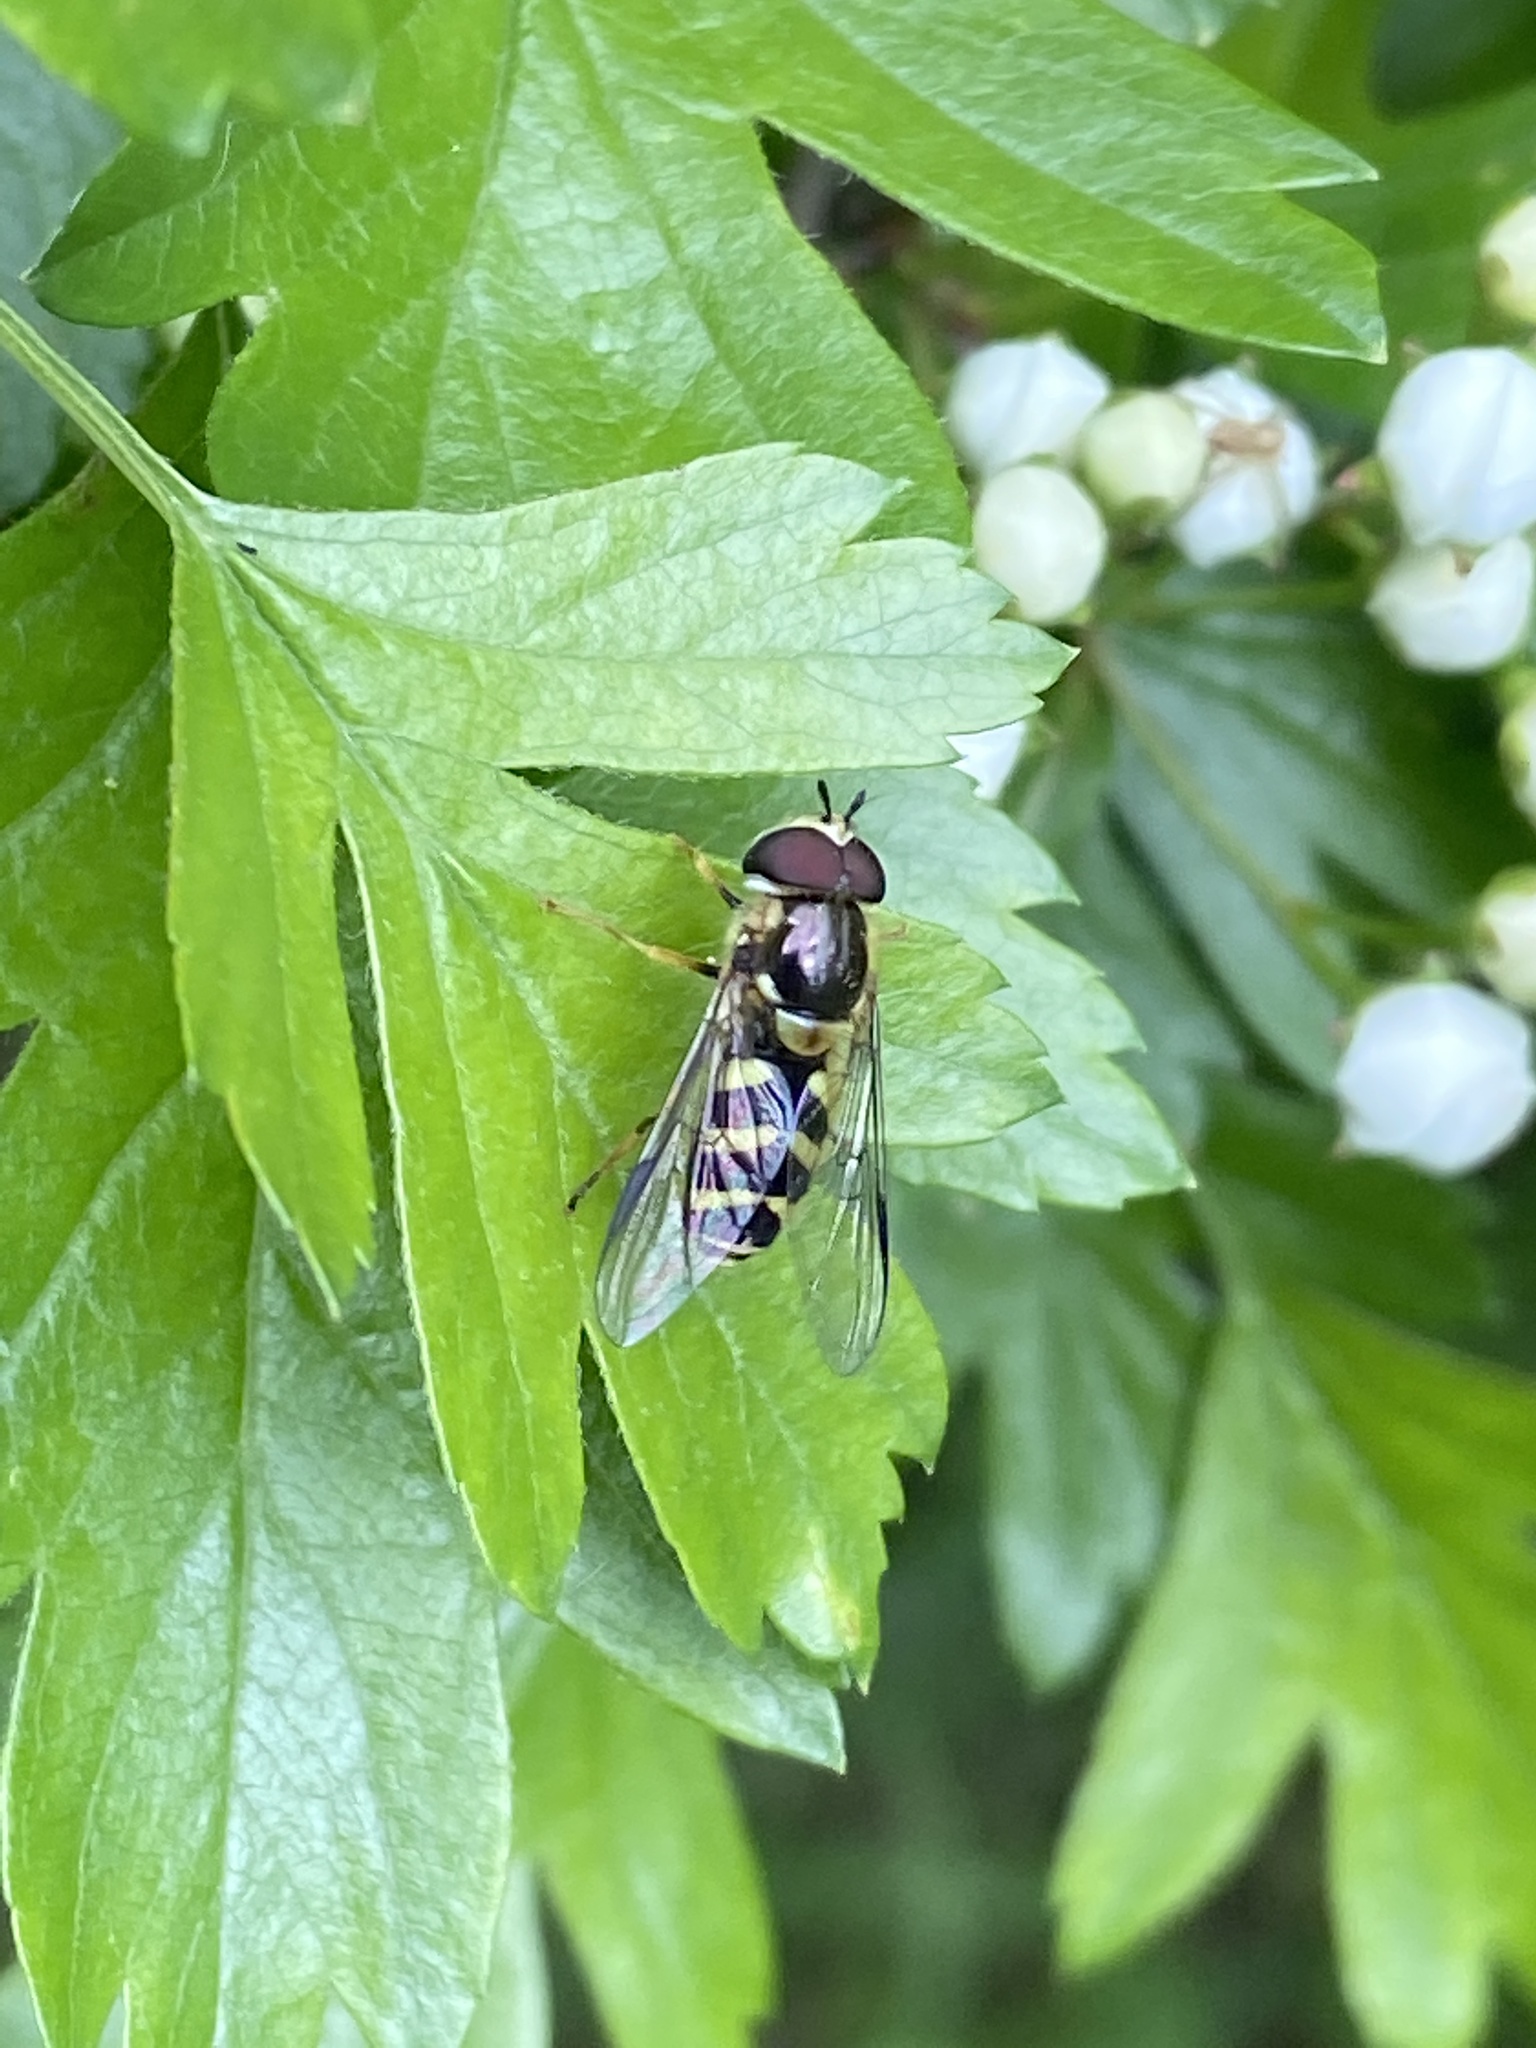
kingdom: Animalia
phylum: Arthropoda
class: Insecta
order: Diptera
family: Syrphidae
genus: Dasysyrphus
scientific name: Dasysyrphus albostriatus
